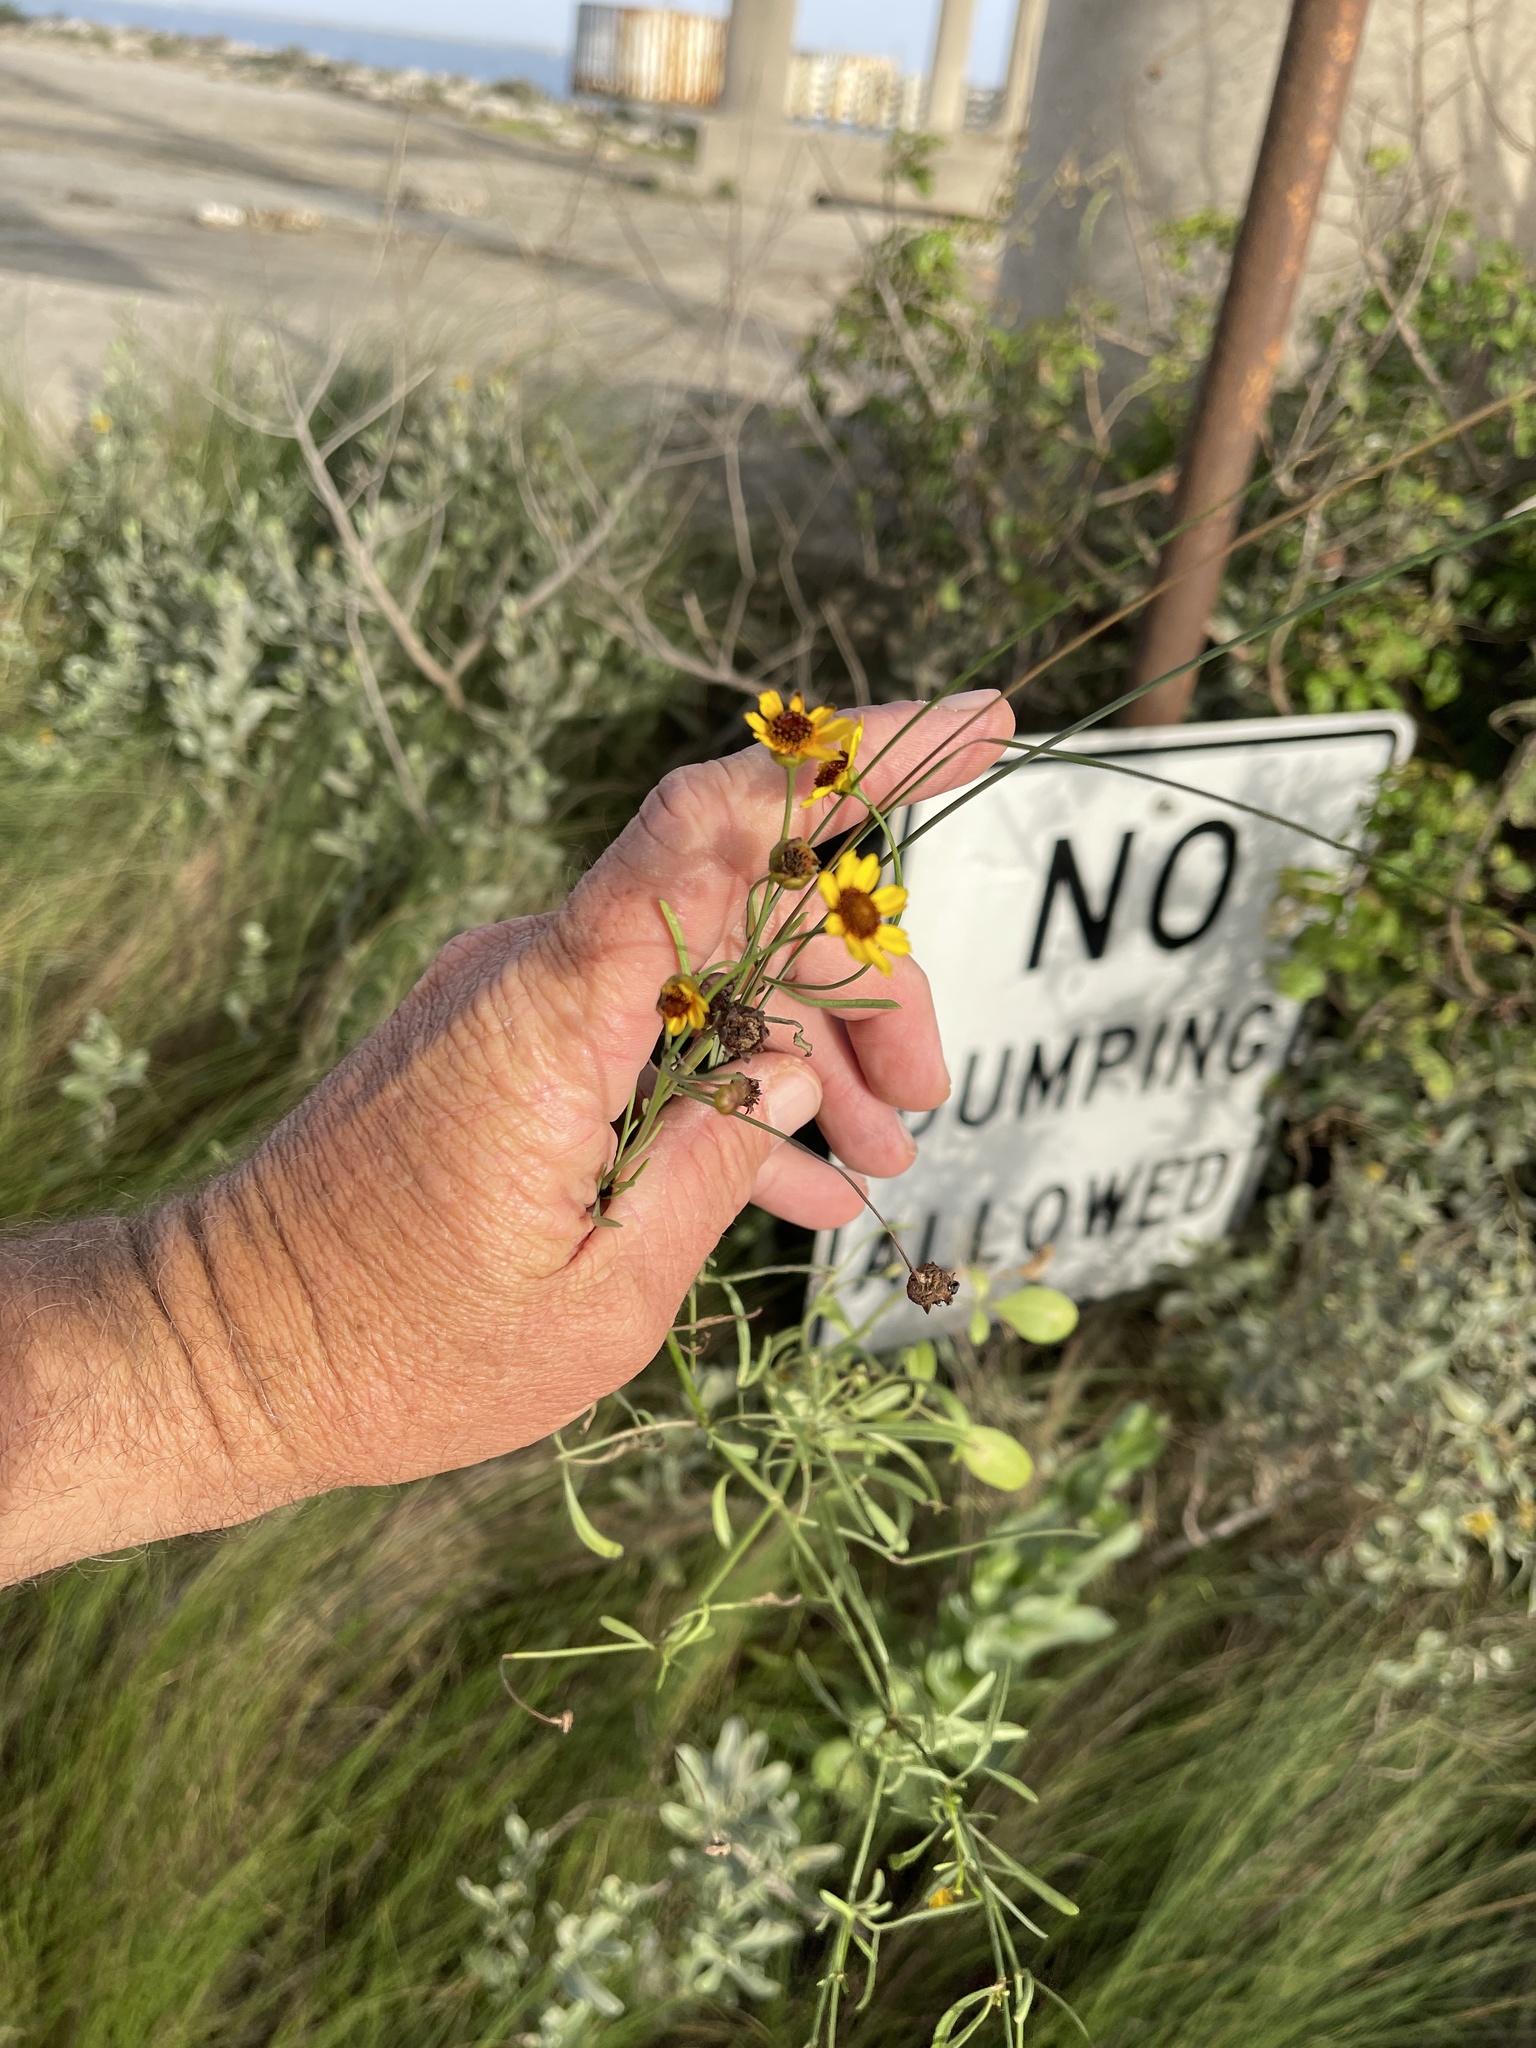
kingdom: Plantae
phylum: Tracheophyta
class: Magnoliopsida
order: Asterales
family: Asteraceae
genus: Thelesperma
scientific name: Thelesperma filifolium
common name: Stiff greenthread
